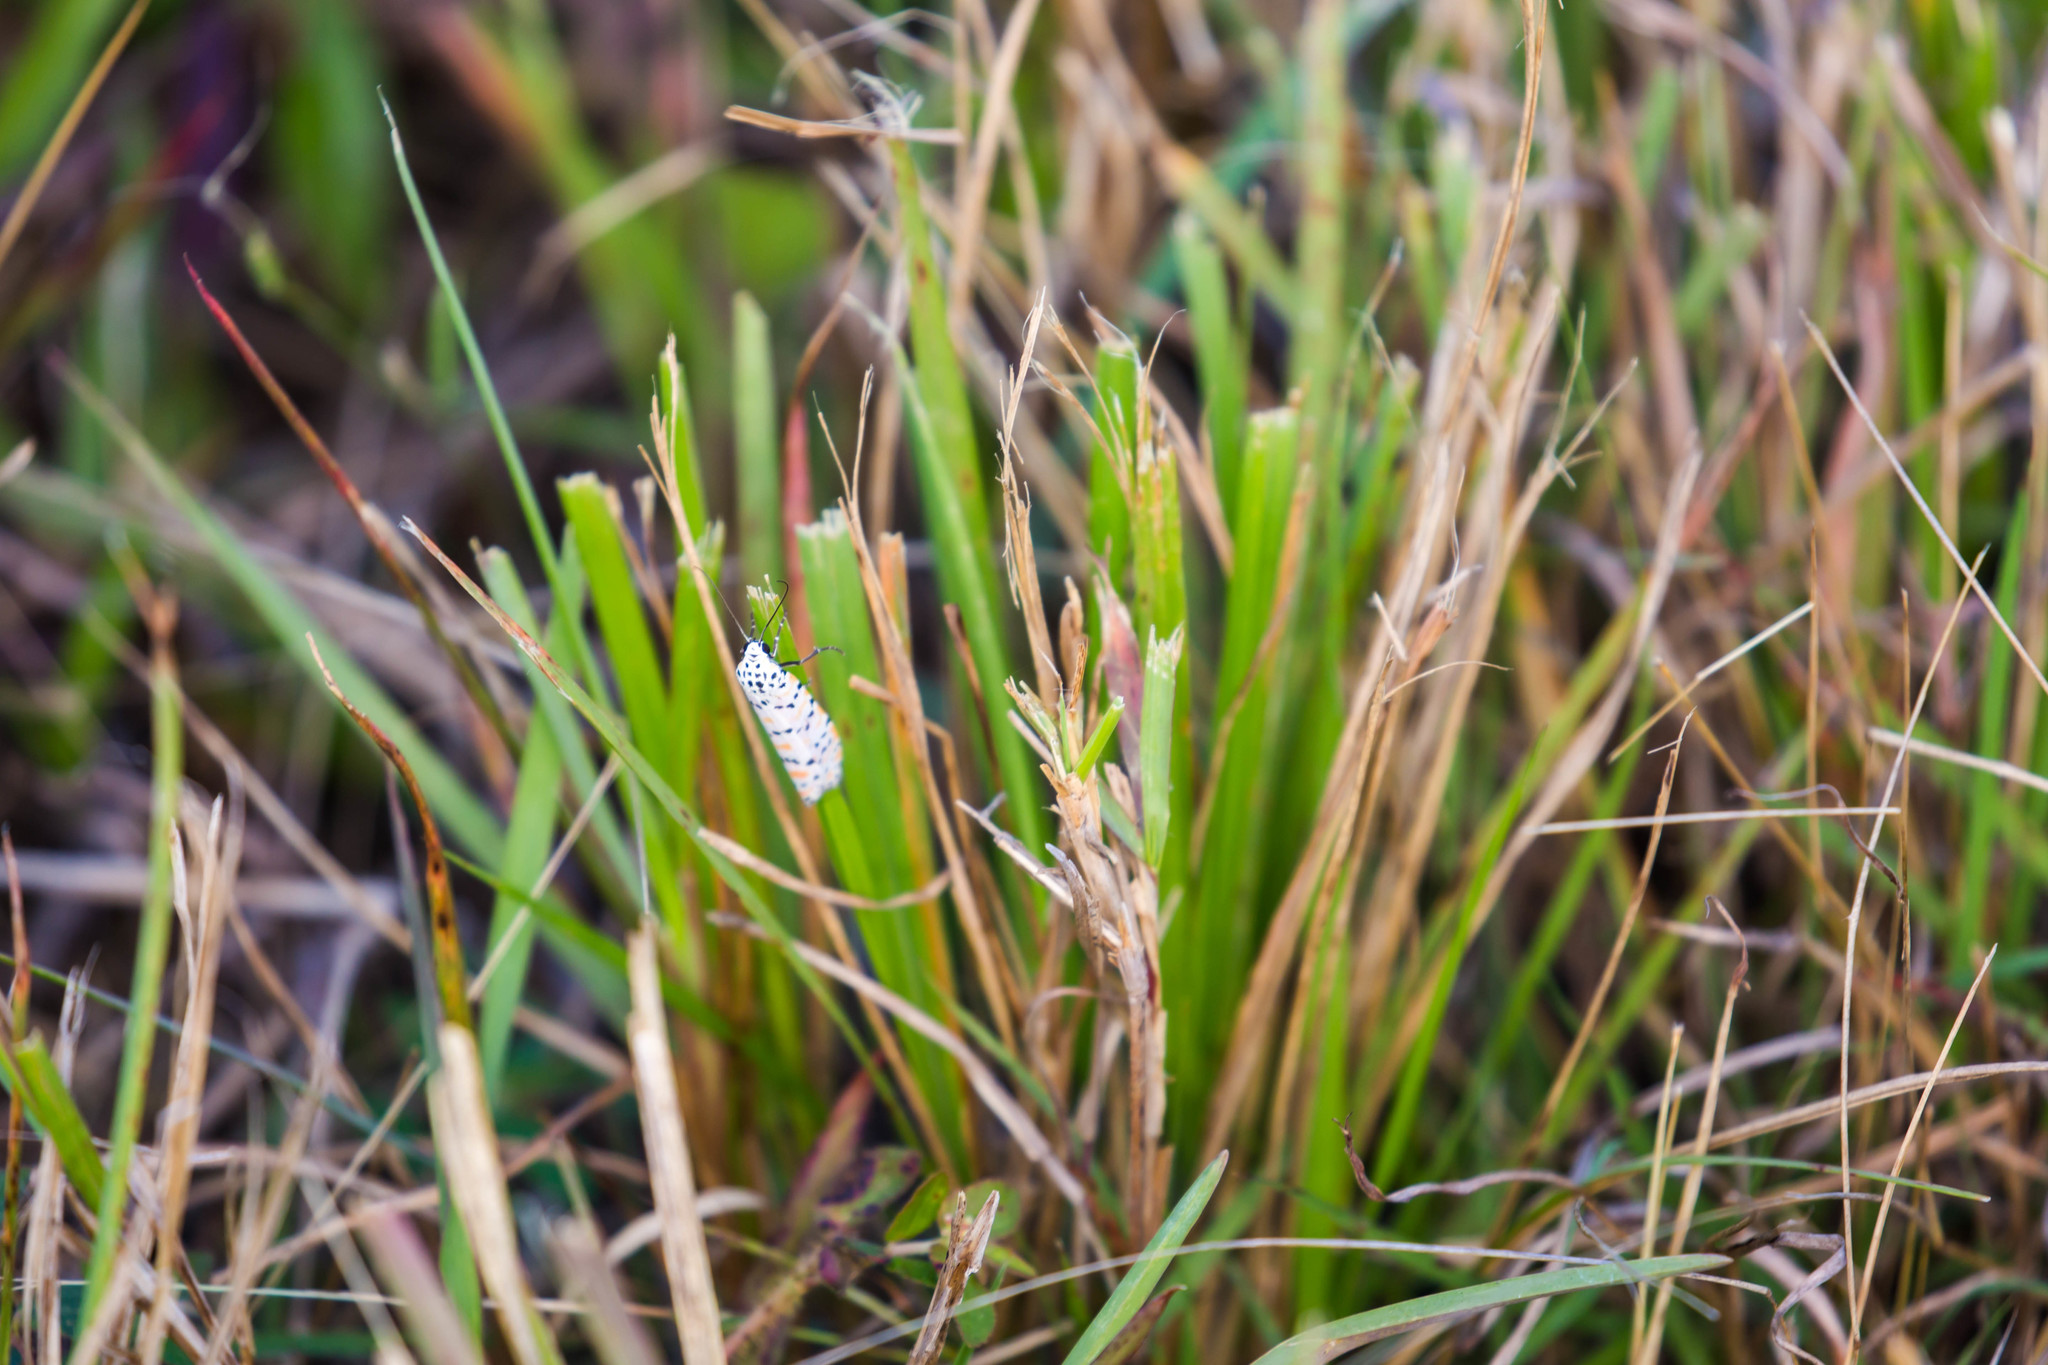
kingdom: Animalia
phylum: Arthropoda
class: Insecta
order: Lepidoptera
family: Erebidae
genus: Utetheisa
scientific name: Utetheisa ornatrix
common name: Beautiful utetheisa
